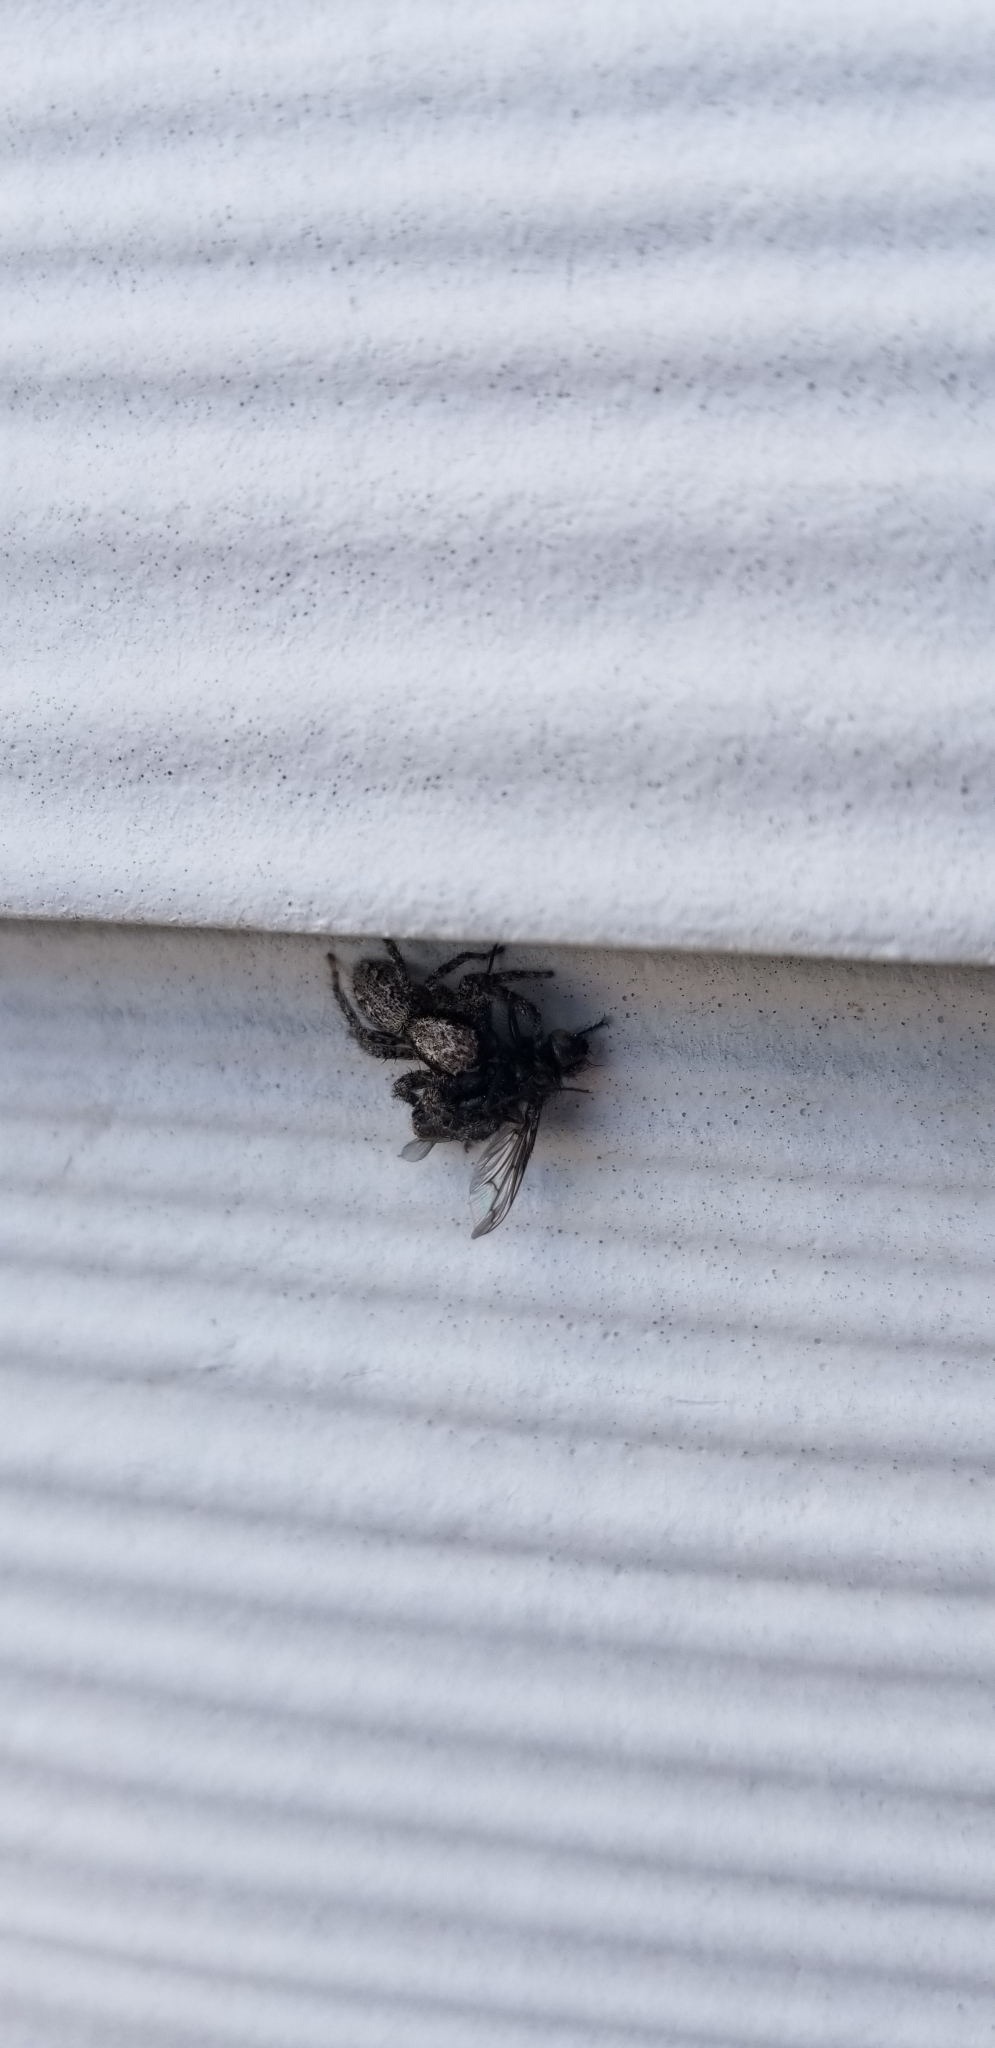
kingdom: Animalia
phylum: Arthropoda
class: Arachnida
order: Araneae
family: Salticidae
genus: Platycryptus
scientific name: Platycryptus californicus
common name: Jumping spiders
